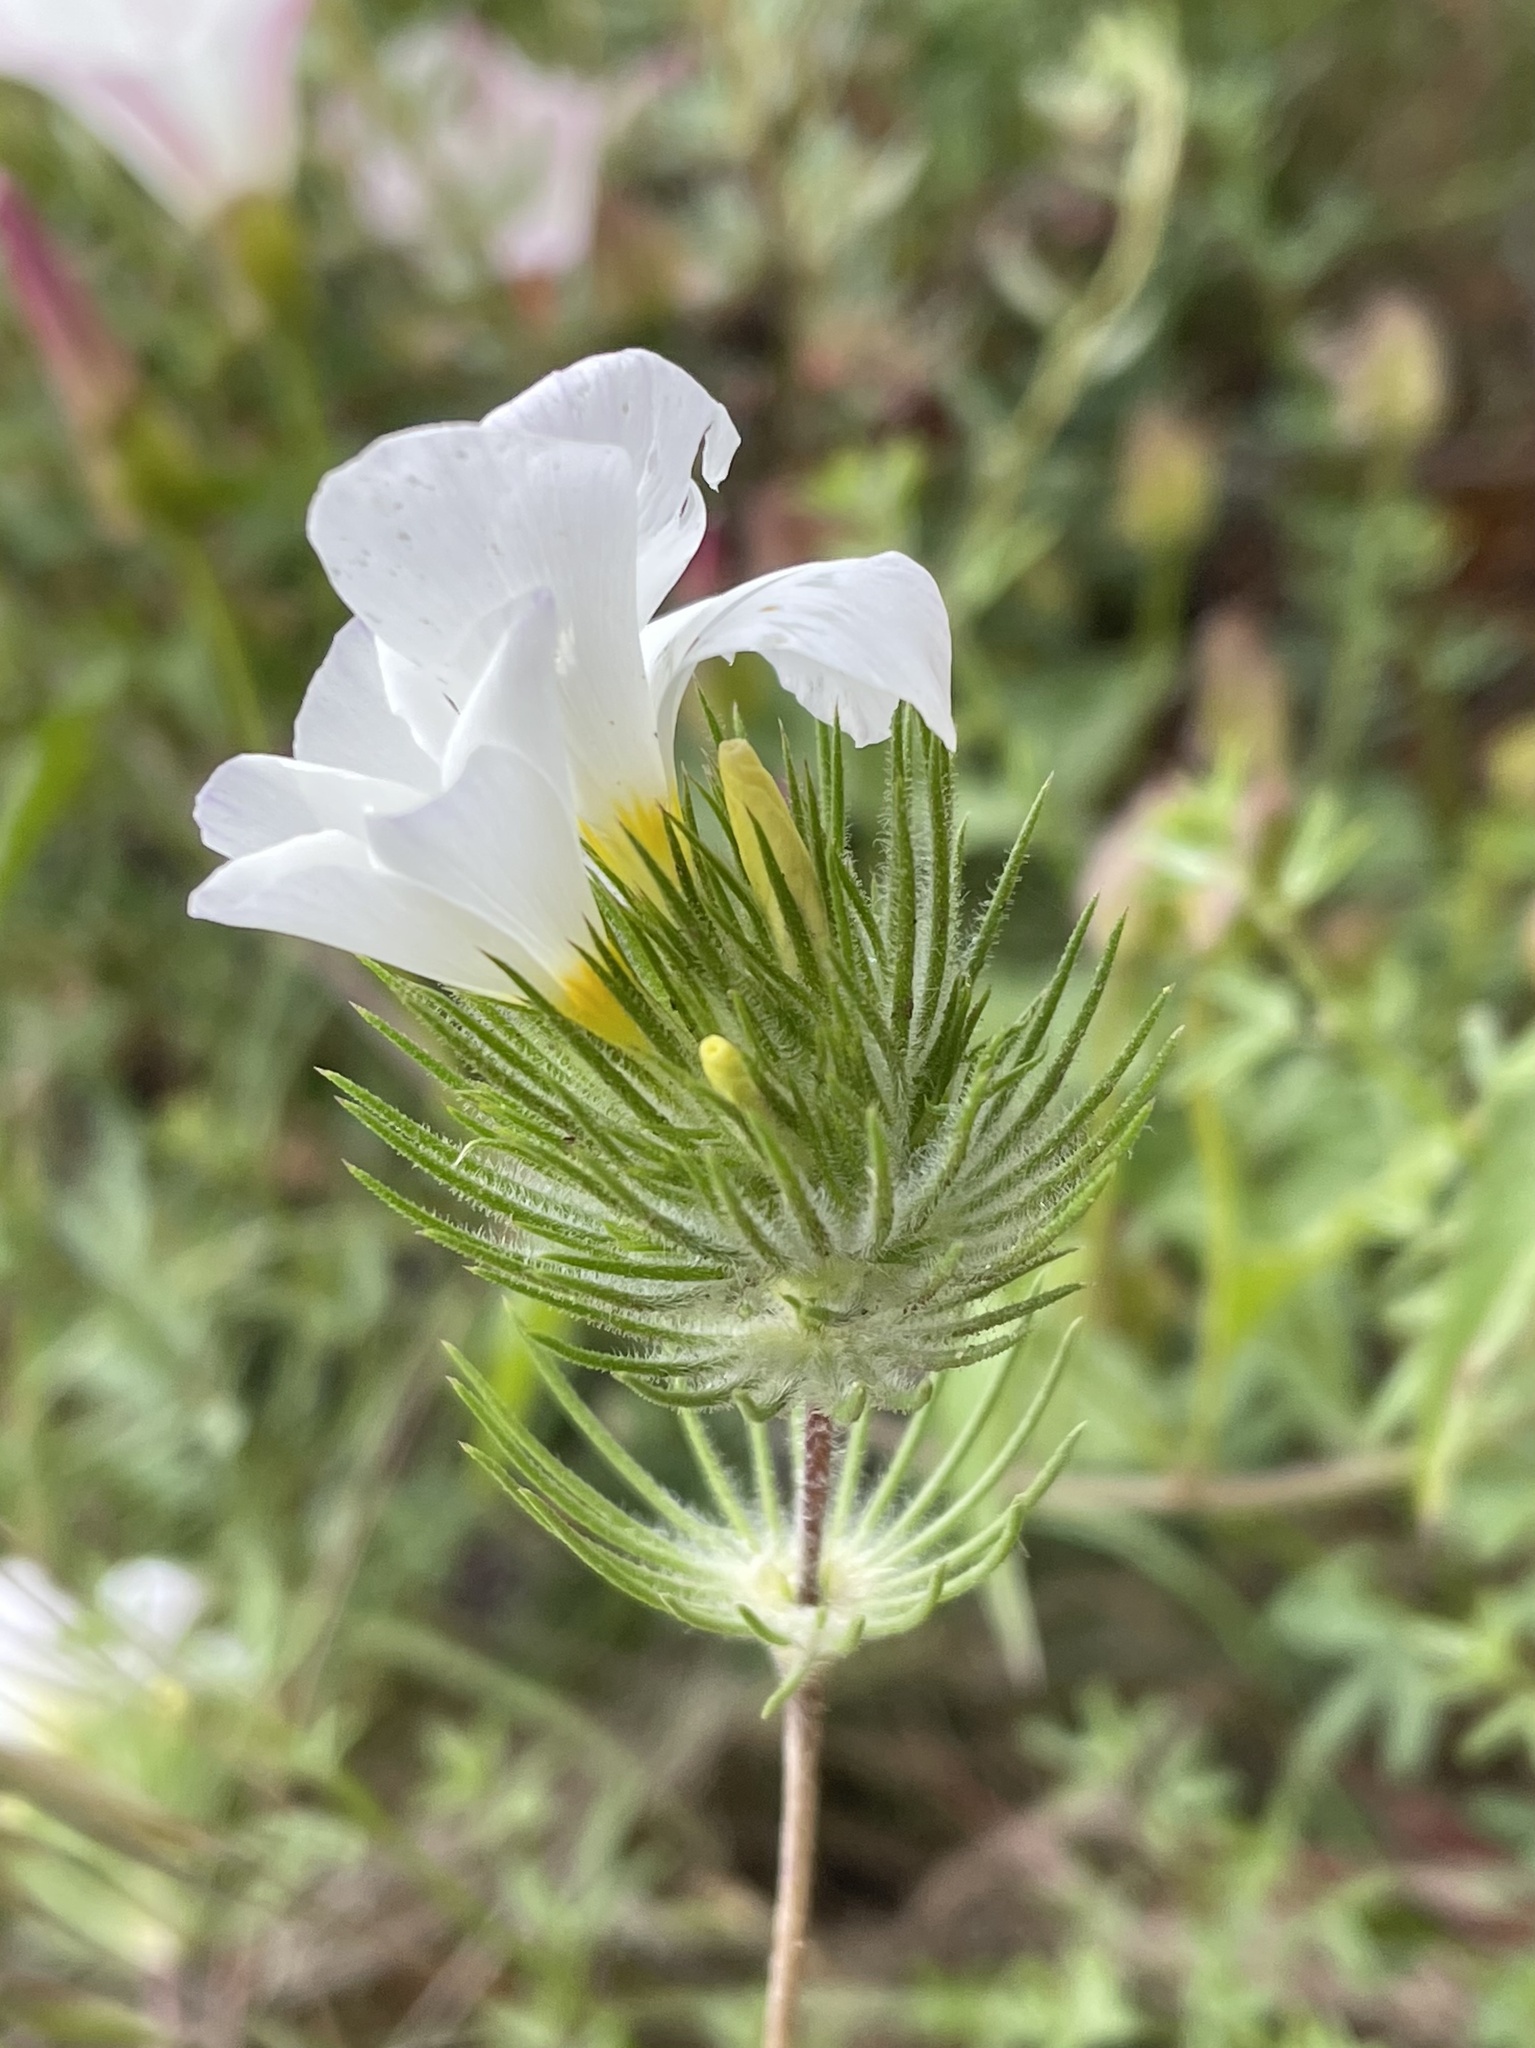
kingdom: Plantae
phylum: Tracheophyta
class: Magnoliopsida
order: Ericales
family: Polemoniaceae
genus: Leptosiphon
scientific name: Leptosiphon grandiflorus
